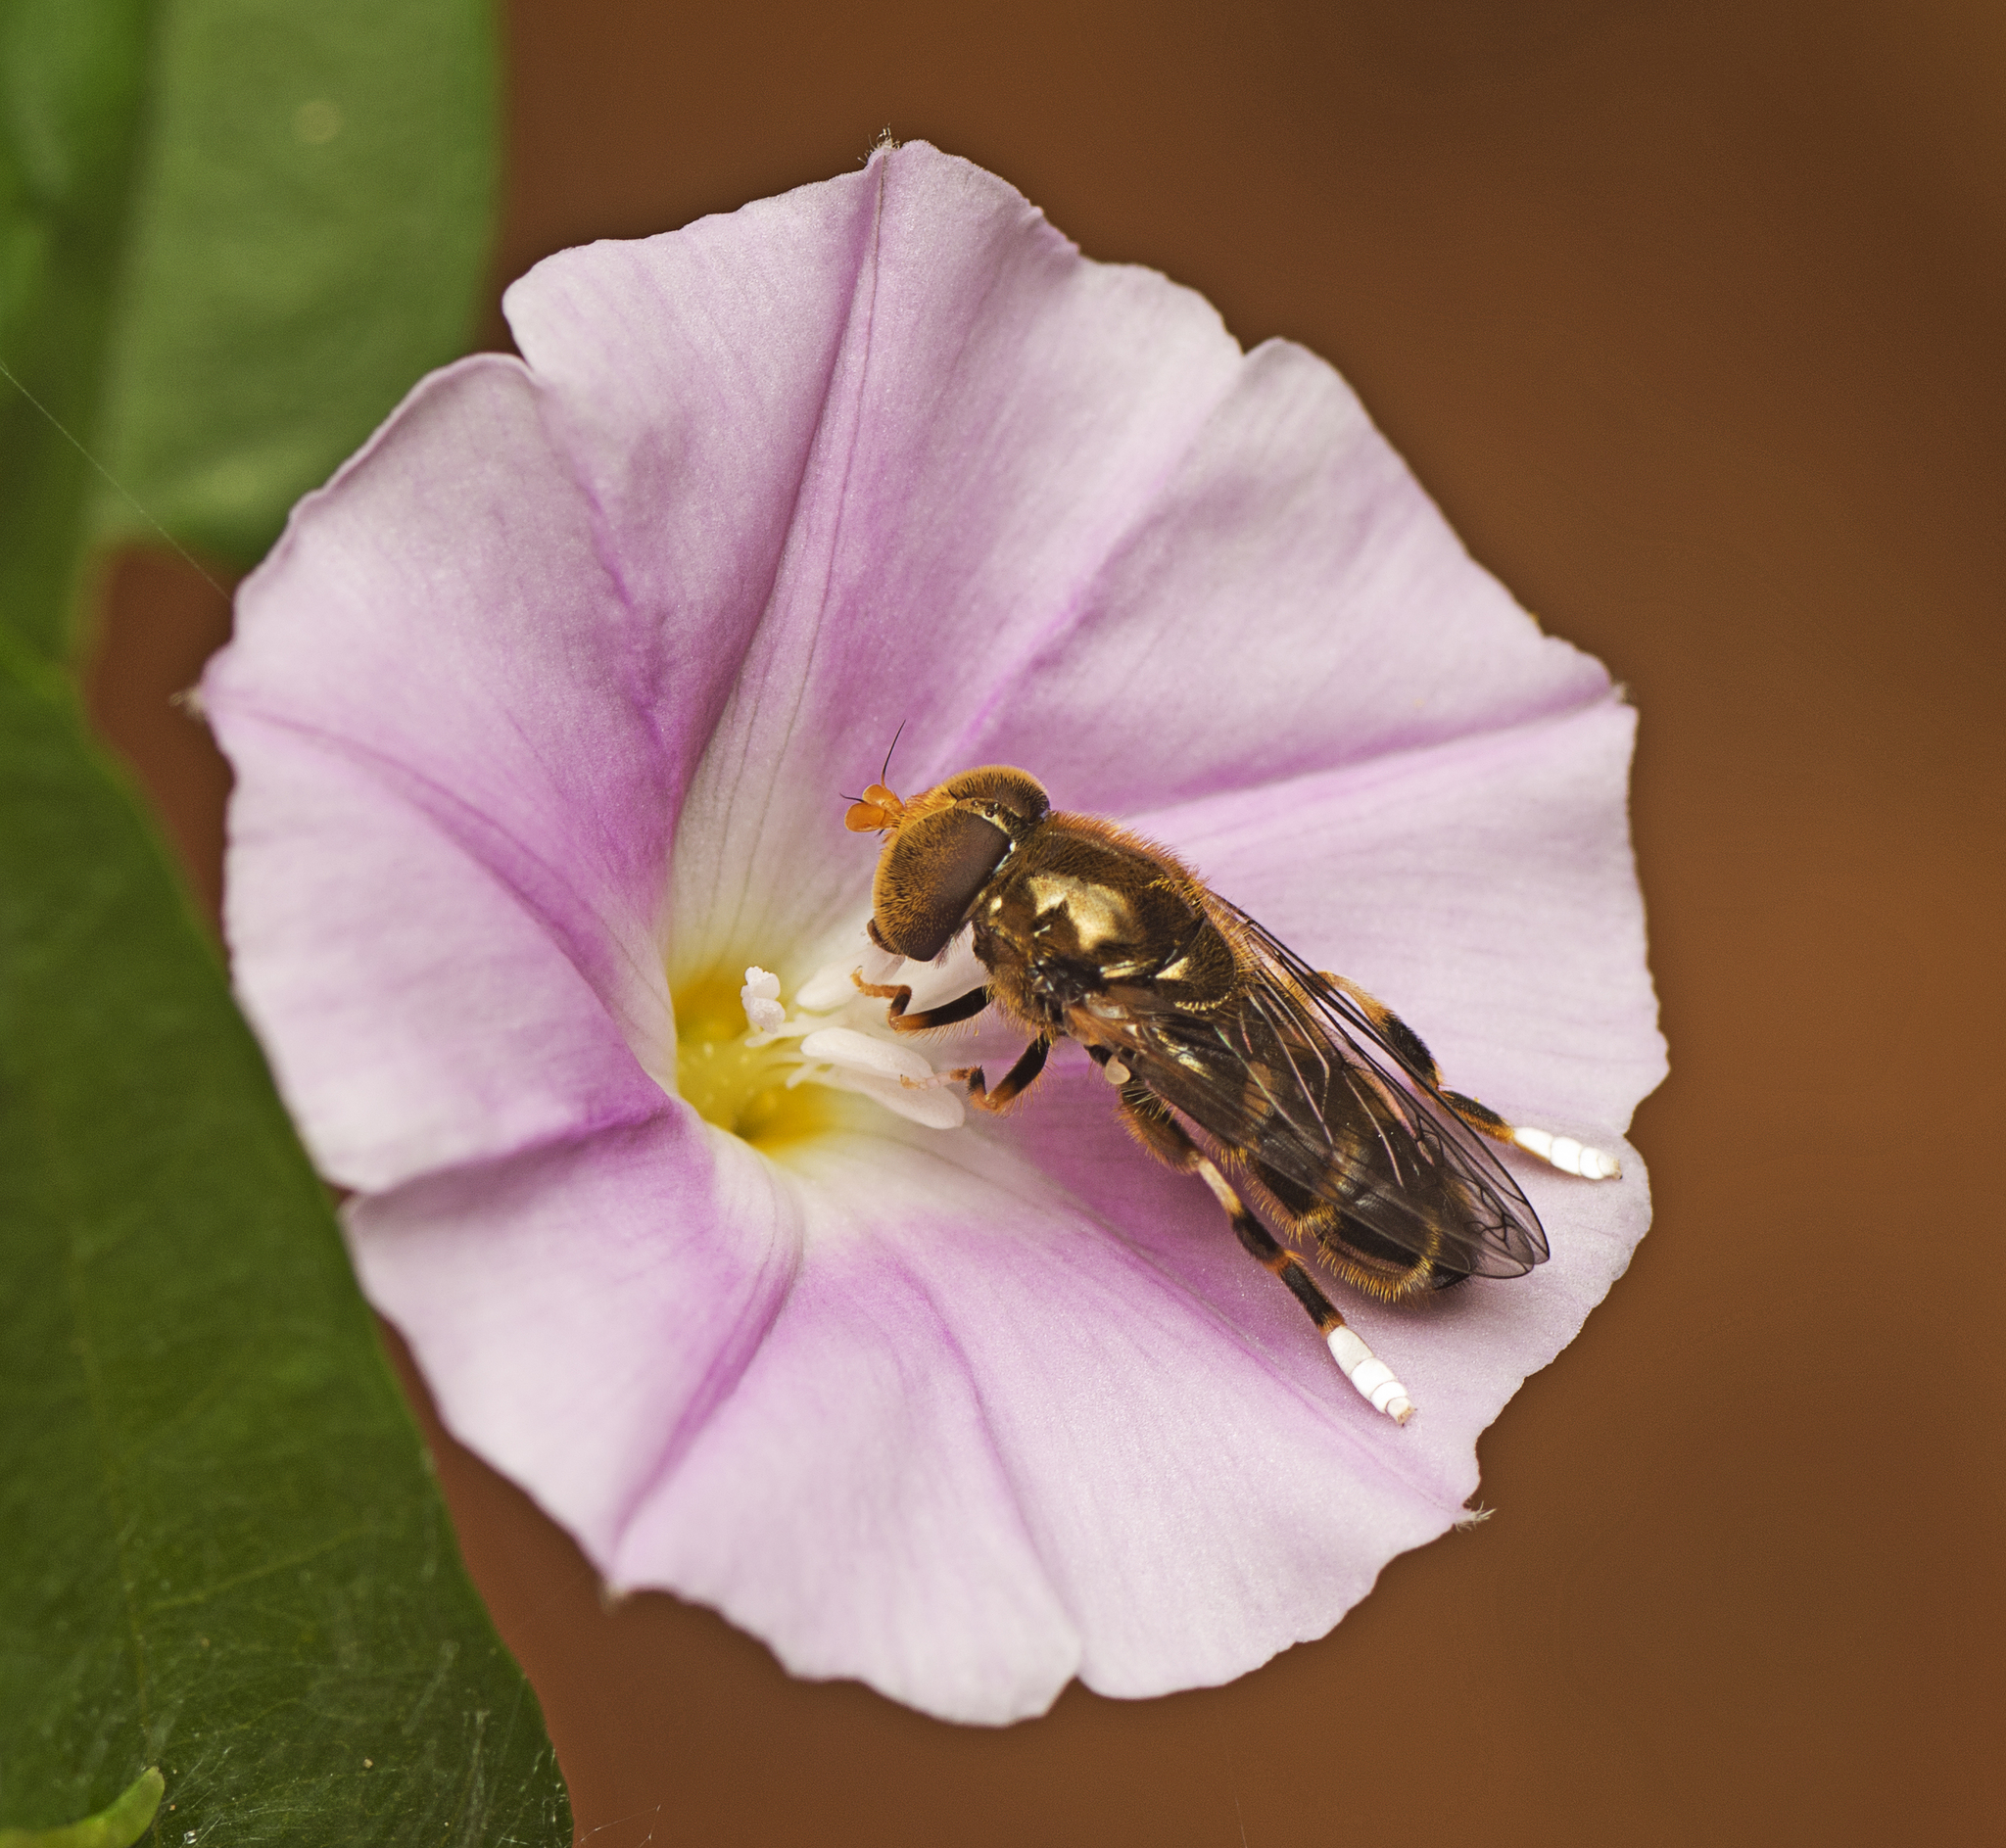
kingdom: Animalia
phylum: Arthropoda
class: Insecta
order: Diptera
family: Syrphidae
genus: Eumerus
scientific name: Eumerus aurifrons
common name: Syrphid fly
